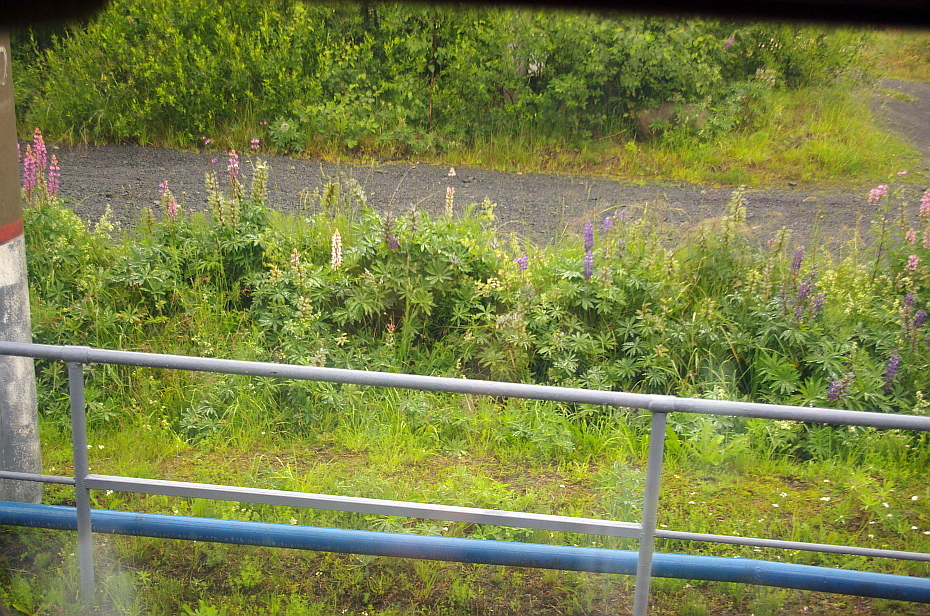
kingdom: Plantae
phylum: Tracheophyta
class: Magnoliopsida
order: Fabales
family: Fabaceae
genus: Lupinus
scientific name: Lupinus polyphyllus
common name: Garden lupin
